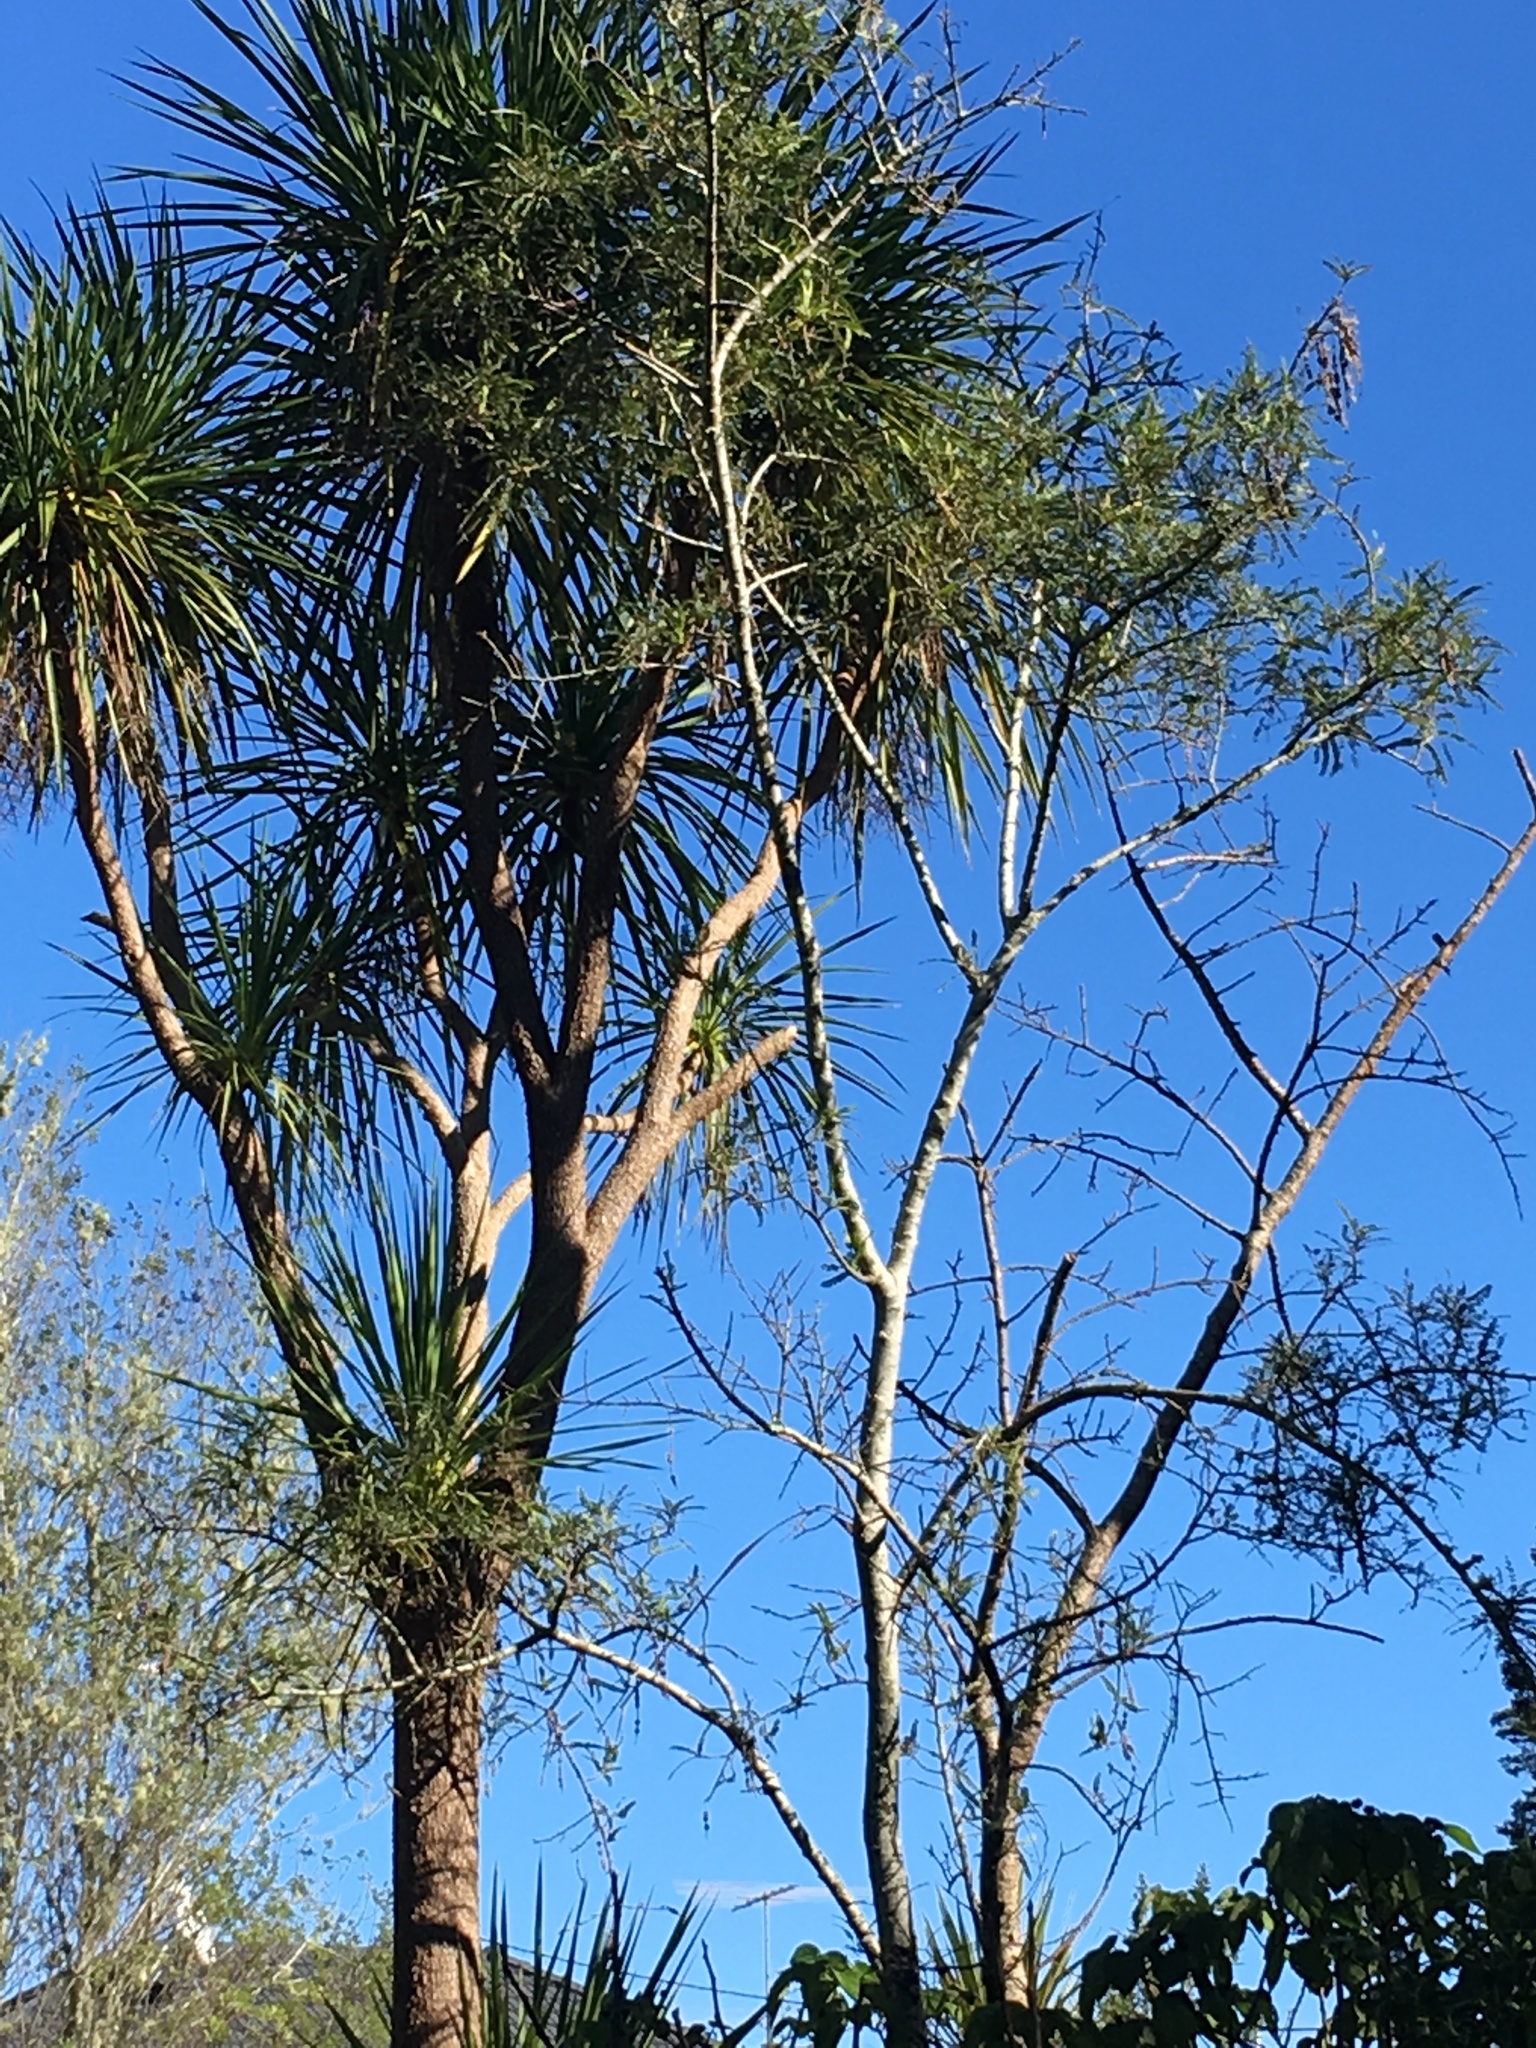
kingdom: Plantae
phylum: Tracheophyta
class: Liliopsida
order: Asparagales
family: Asparagaceae
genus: Cordyline
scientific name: Cordyline australis
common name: Cabbage-palm
